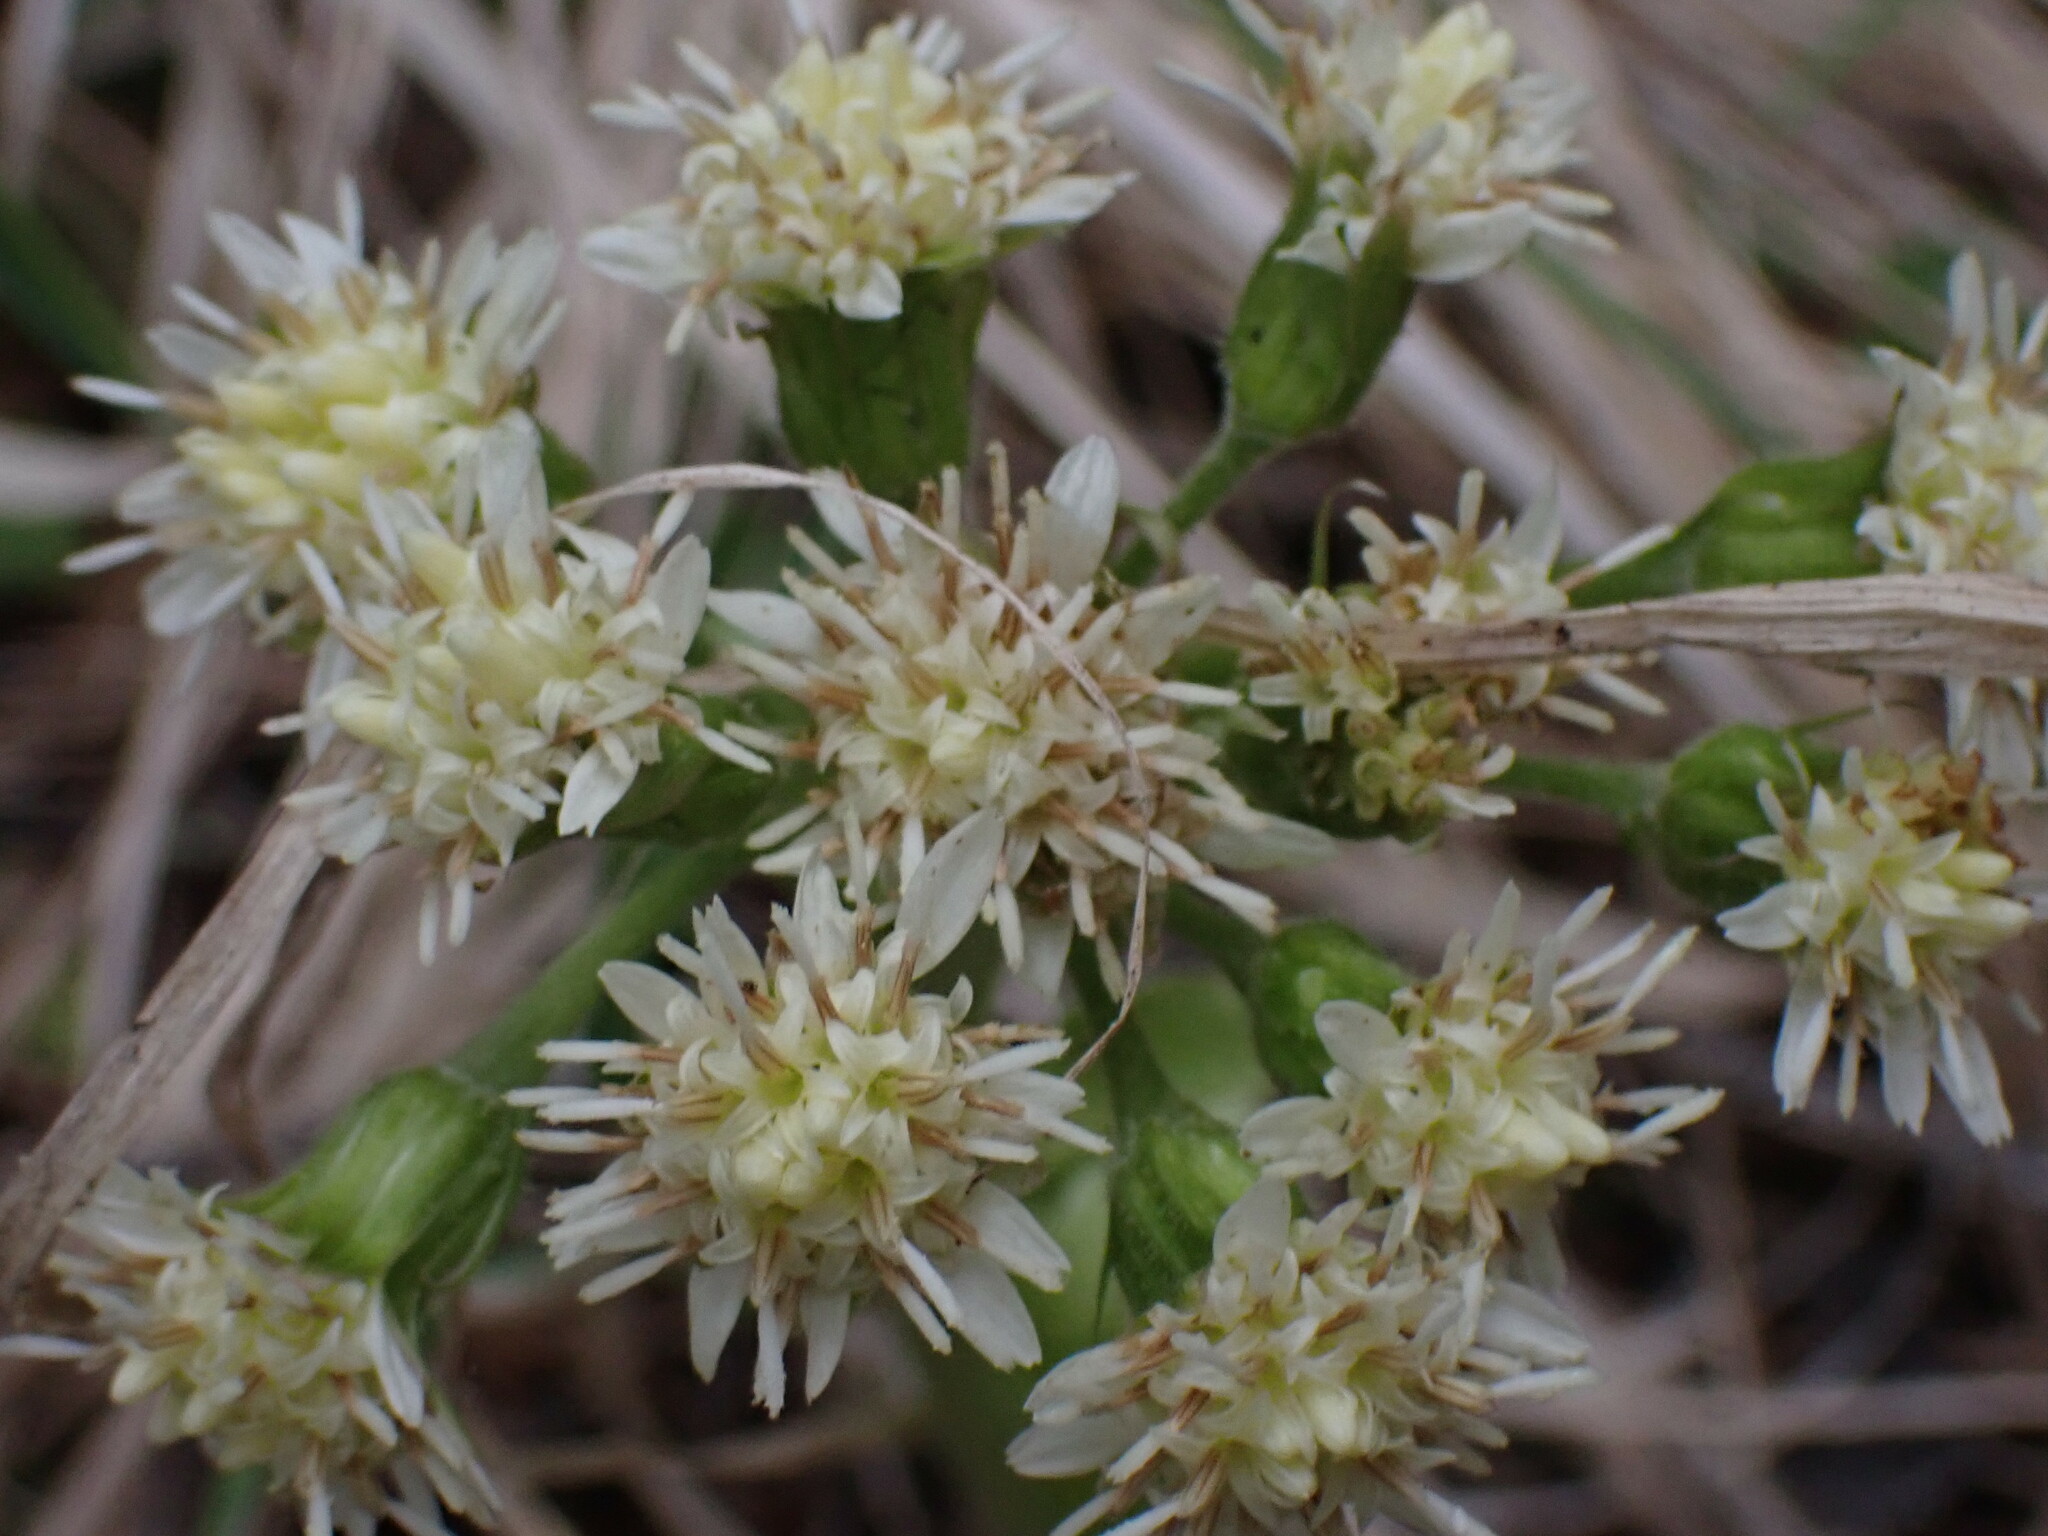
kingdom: Plantae
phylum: Tracheophyta
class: Magnoliopsida
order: Asterales
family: Asteraceae
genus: Petasites
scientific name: Petasites frigidus
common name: Arctic butterbur
